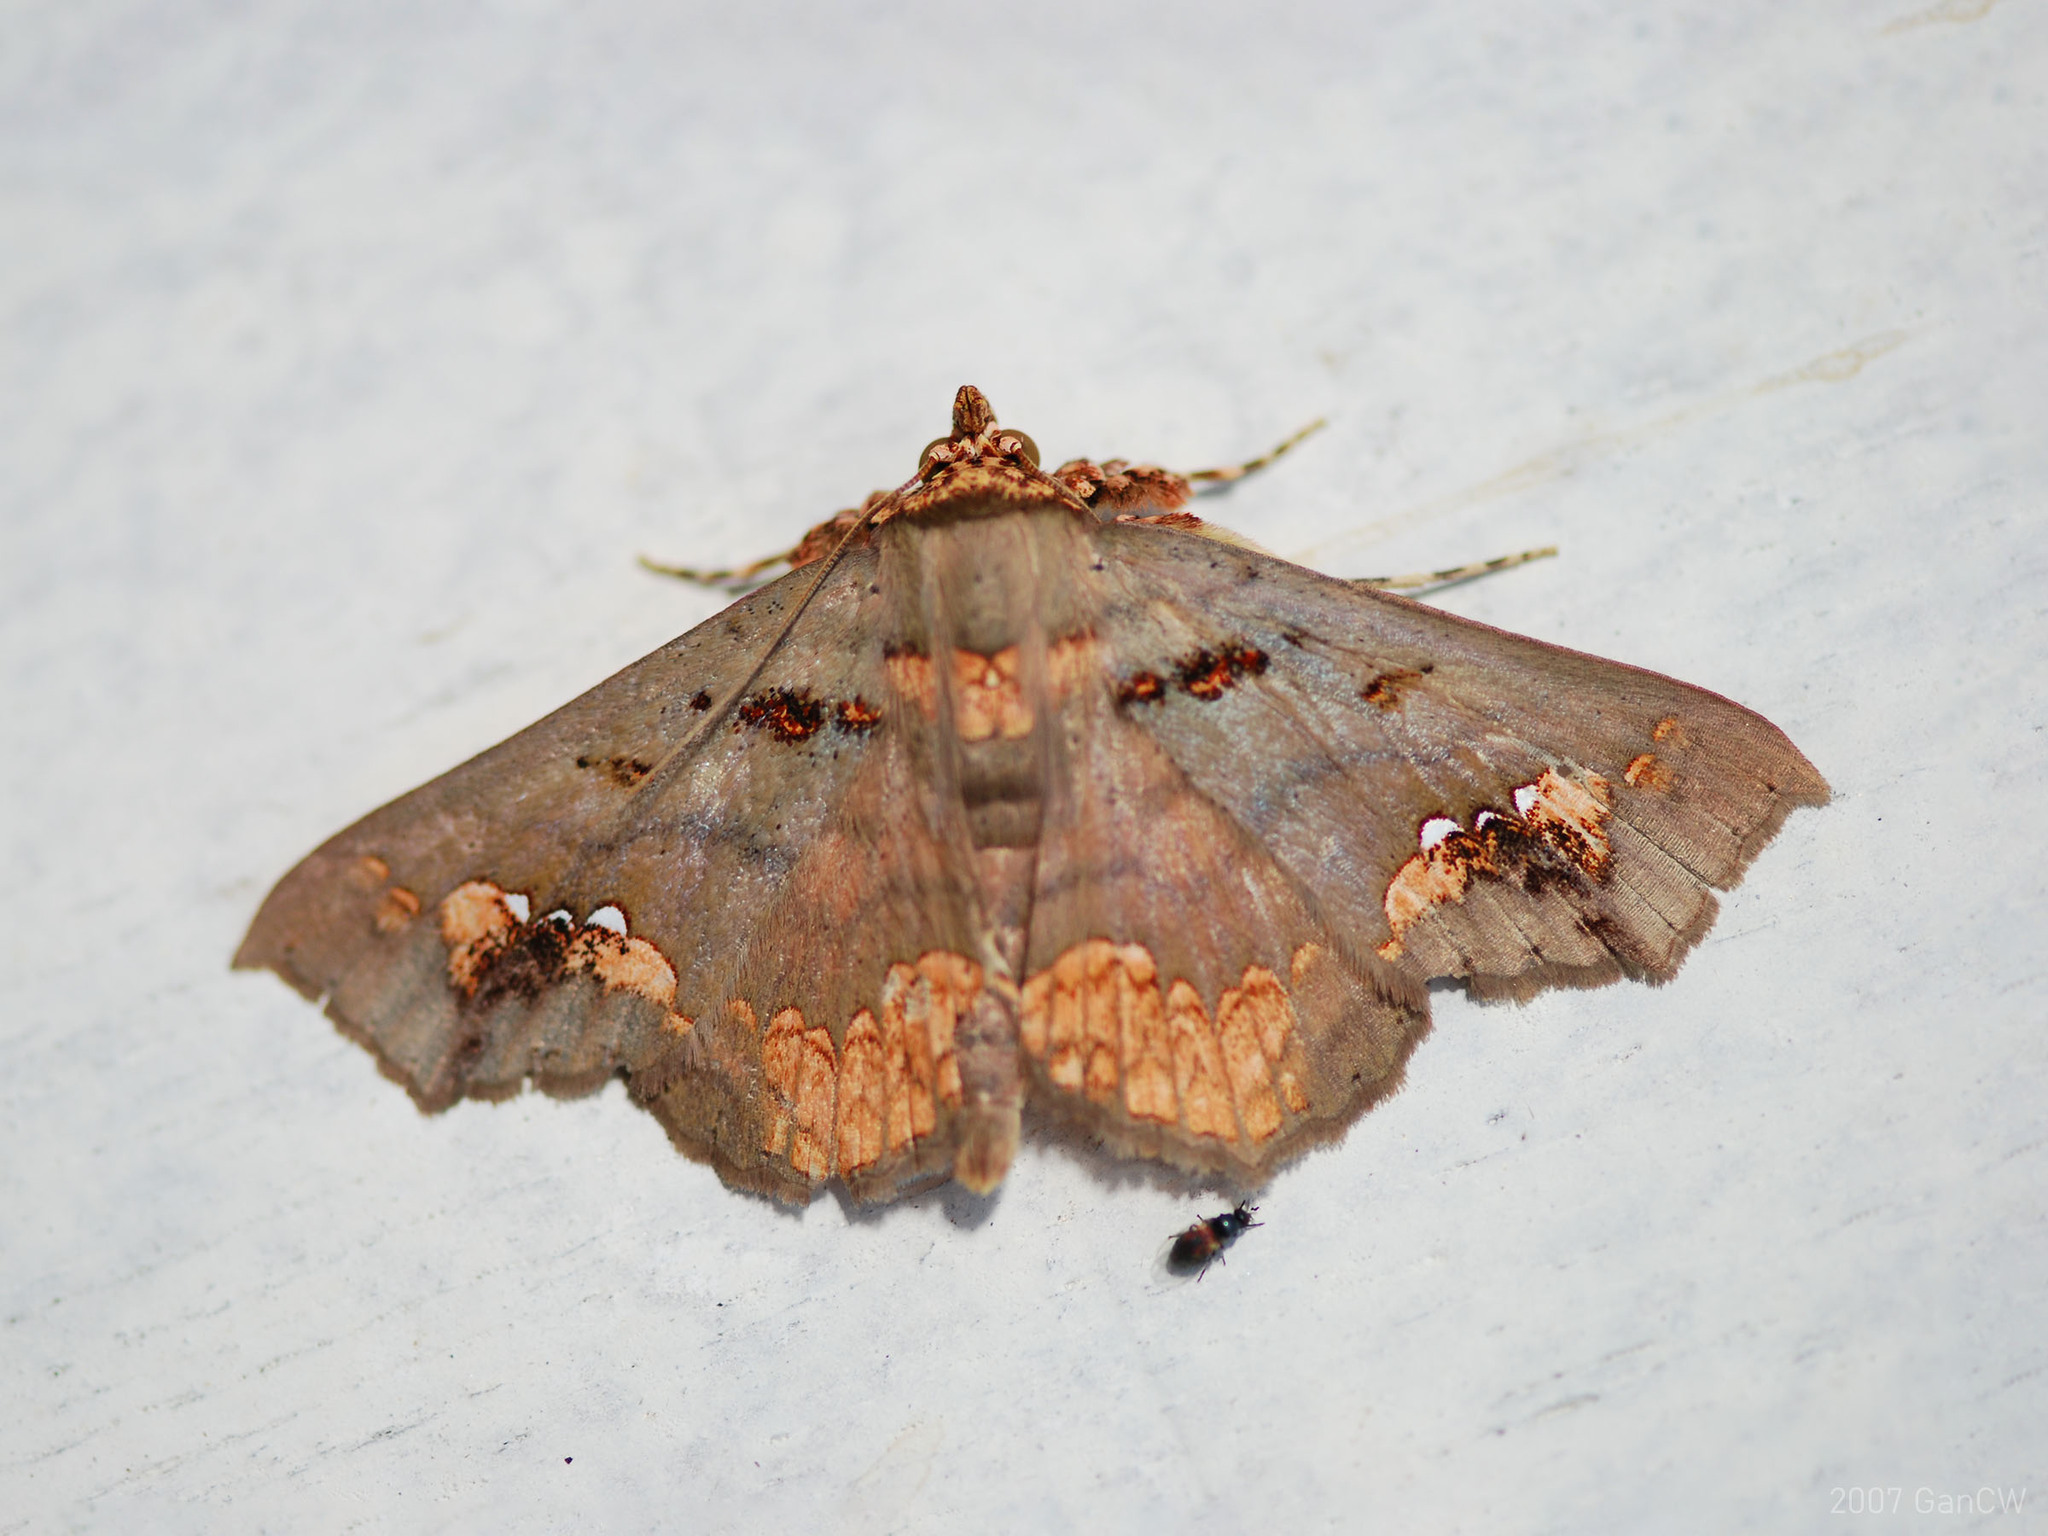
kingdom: Animalia
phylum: Arthropoda
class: Insecta
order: Lepidoptera
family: Erebidae
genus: Lopharthrum
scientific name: Lopharthrum comprimens
